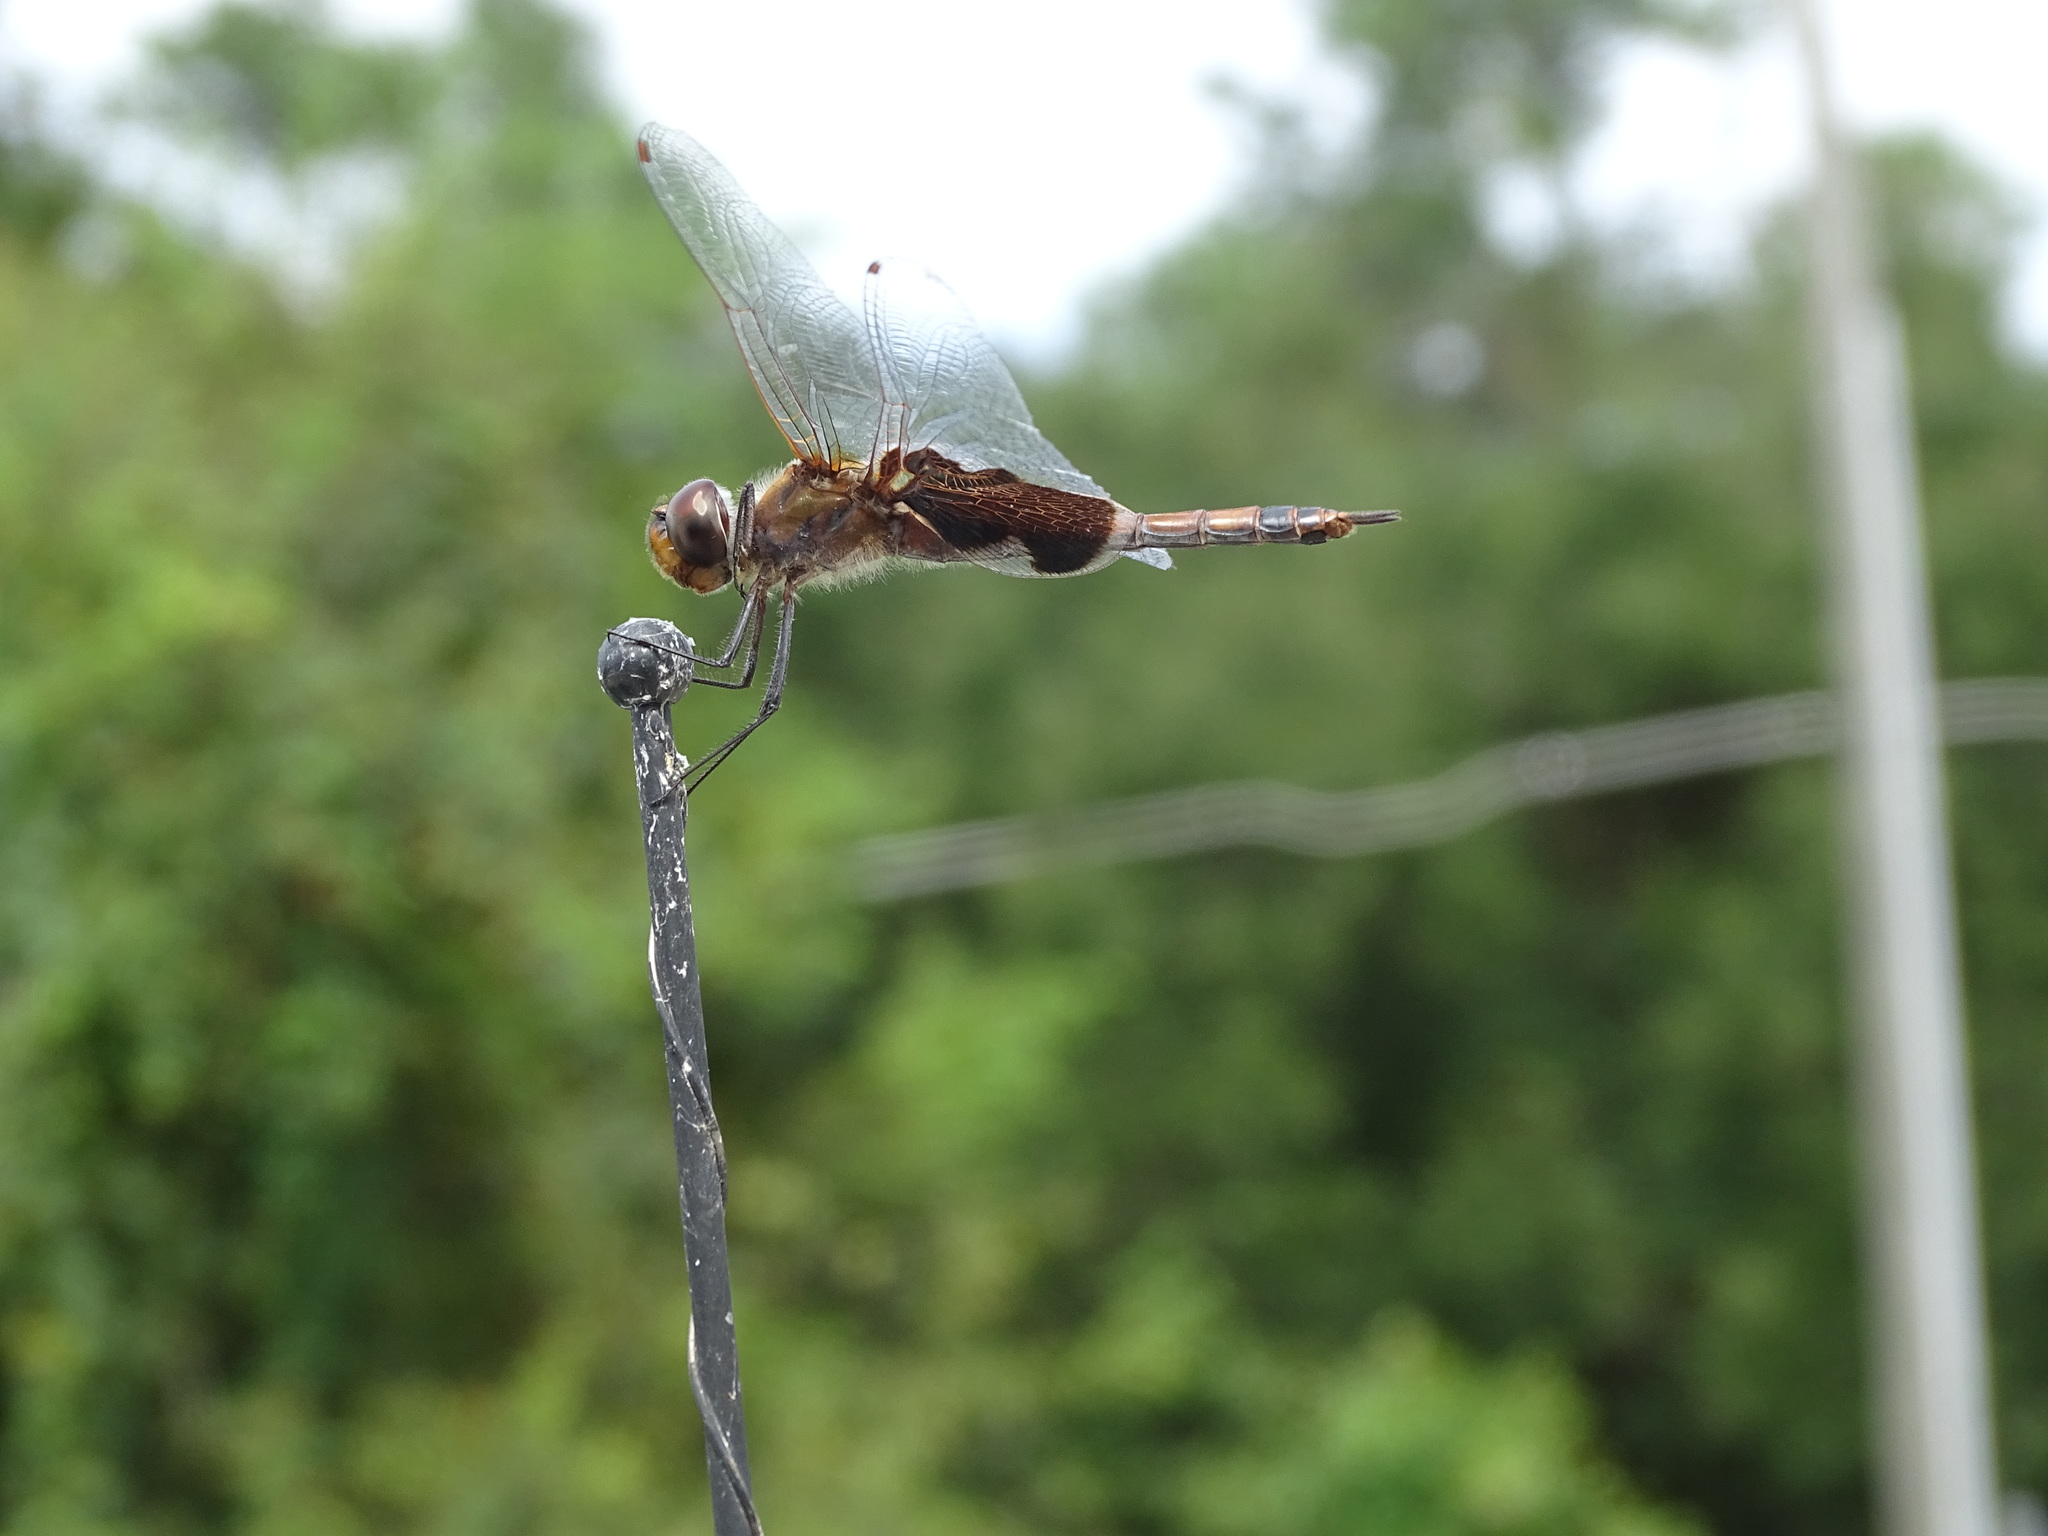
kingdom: Animalia
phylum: Arthropoda
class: Insecta
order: Odonata
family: Libellulidae
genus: Tramea
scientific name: Tramea carolina
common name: Carolina saddlebags
